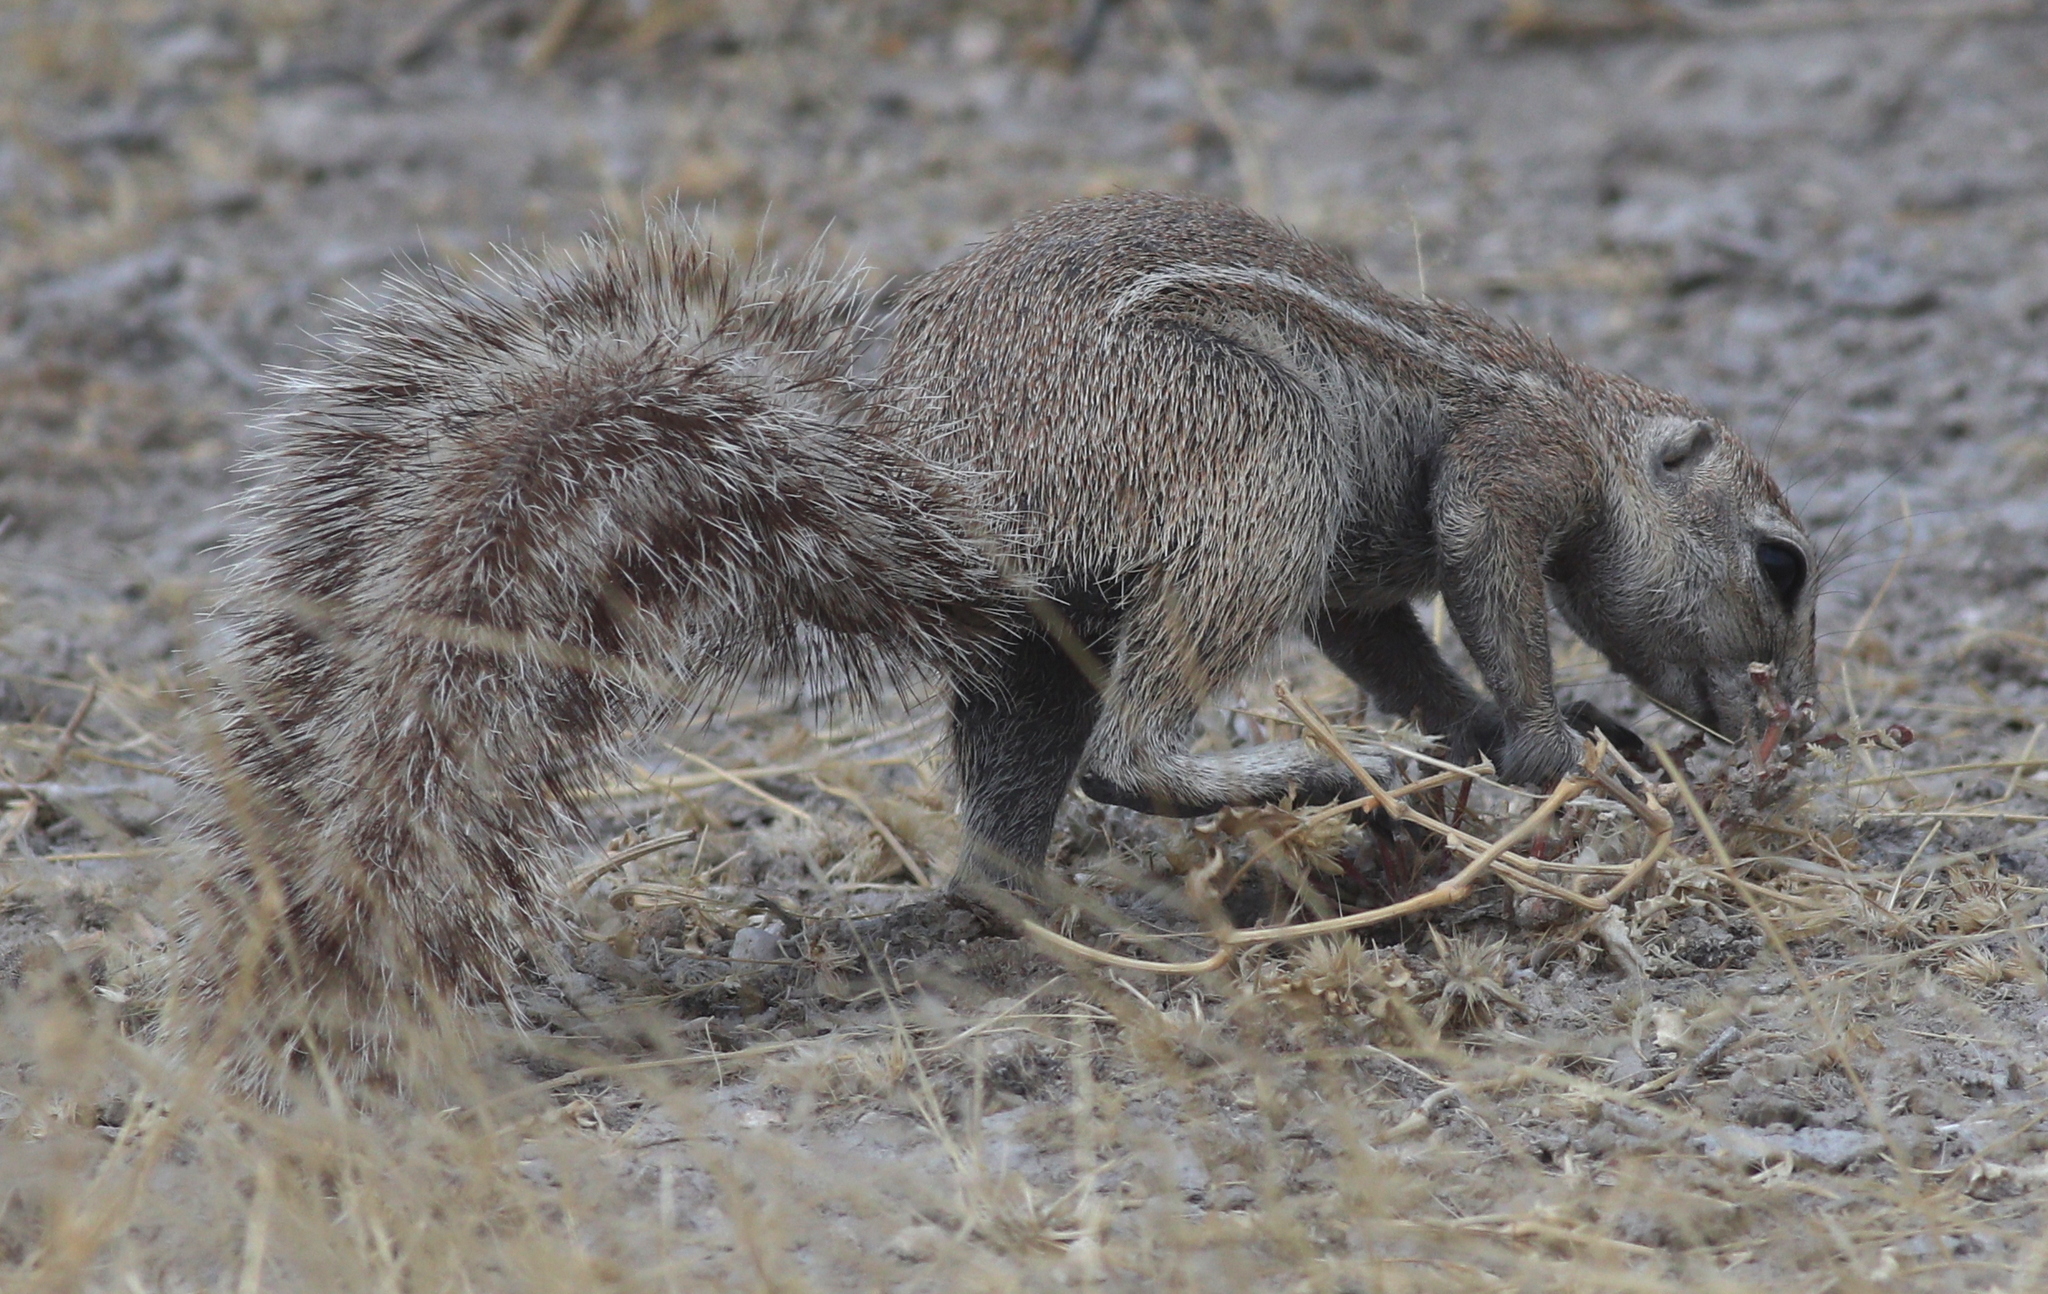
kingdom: Animalia
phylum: Chordata
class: Mammalia
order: Rodentia
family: Sciuridae
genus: Xerus
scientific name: Xerus inauris
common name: South african ground squirrel
